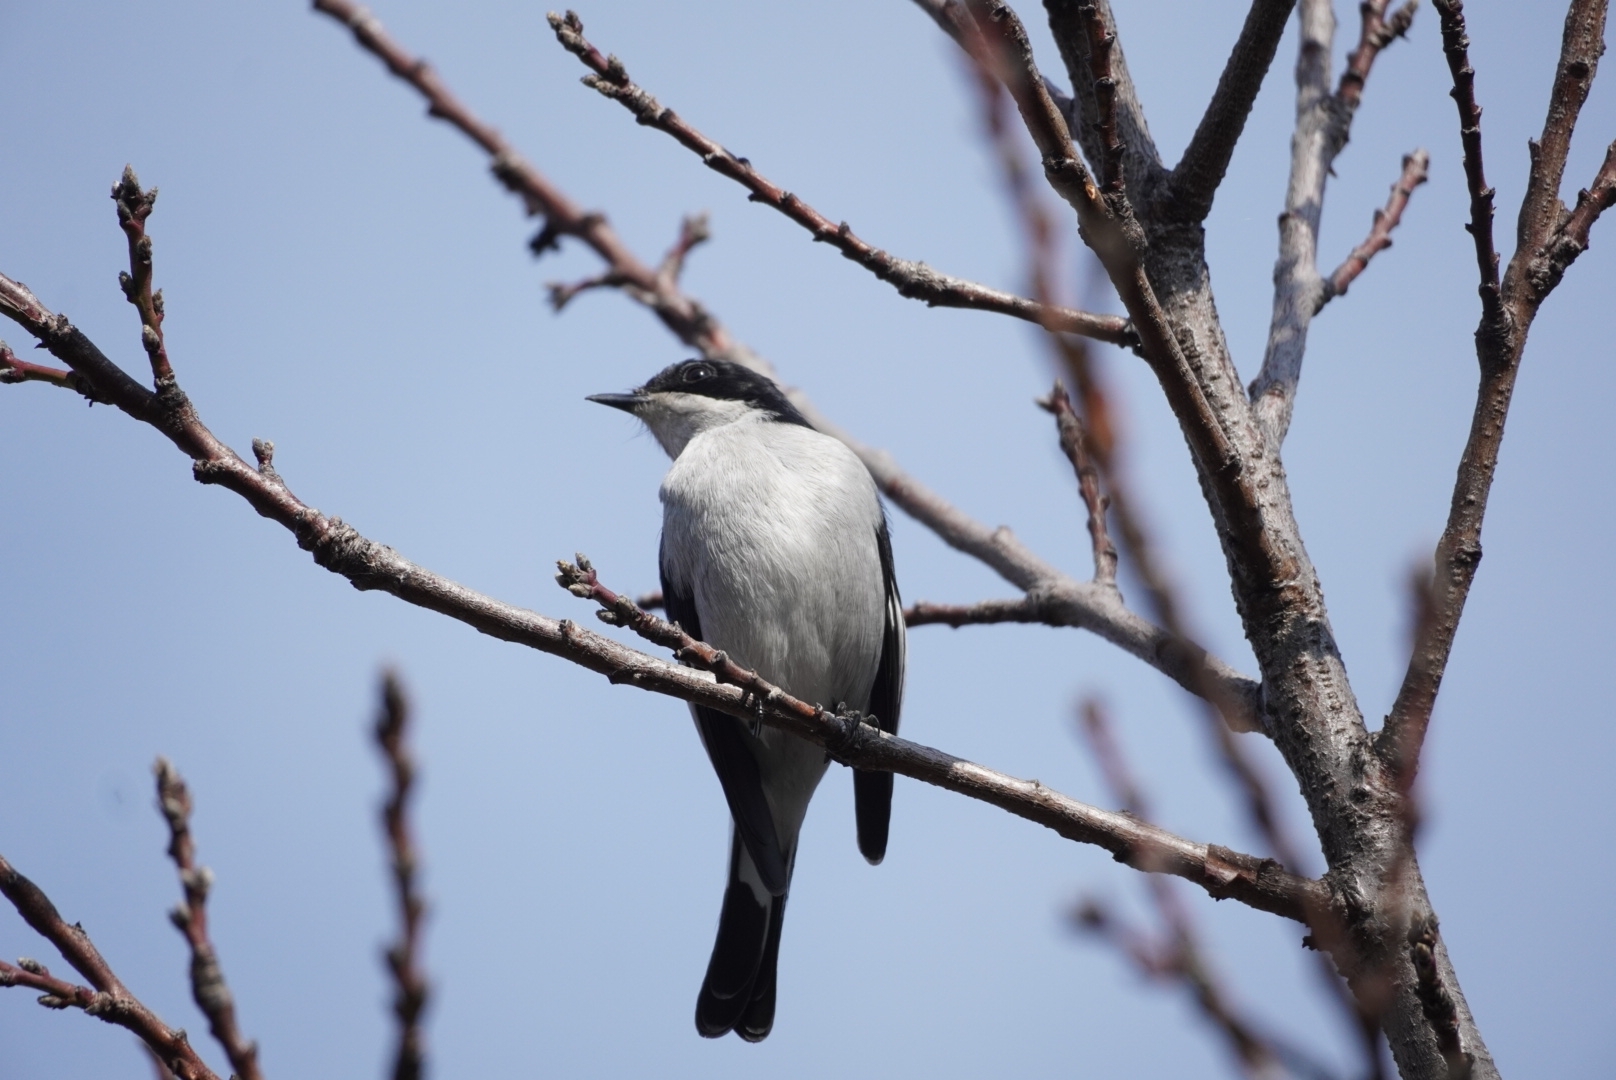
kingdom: Animalia
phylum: Chordata
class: Aves
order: Passeriformes
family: Muscicapidae
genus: Sigelus
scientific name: Sigelus silens
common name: Fiscal flycatcher
